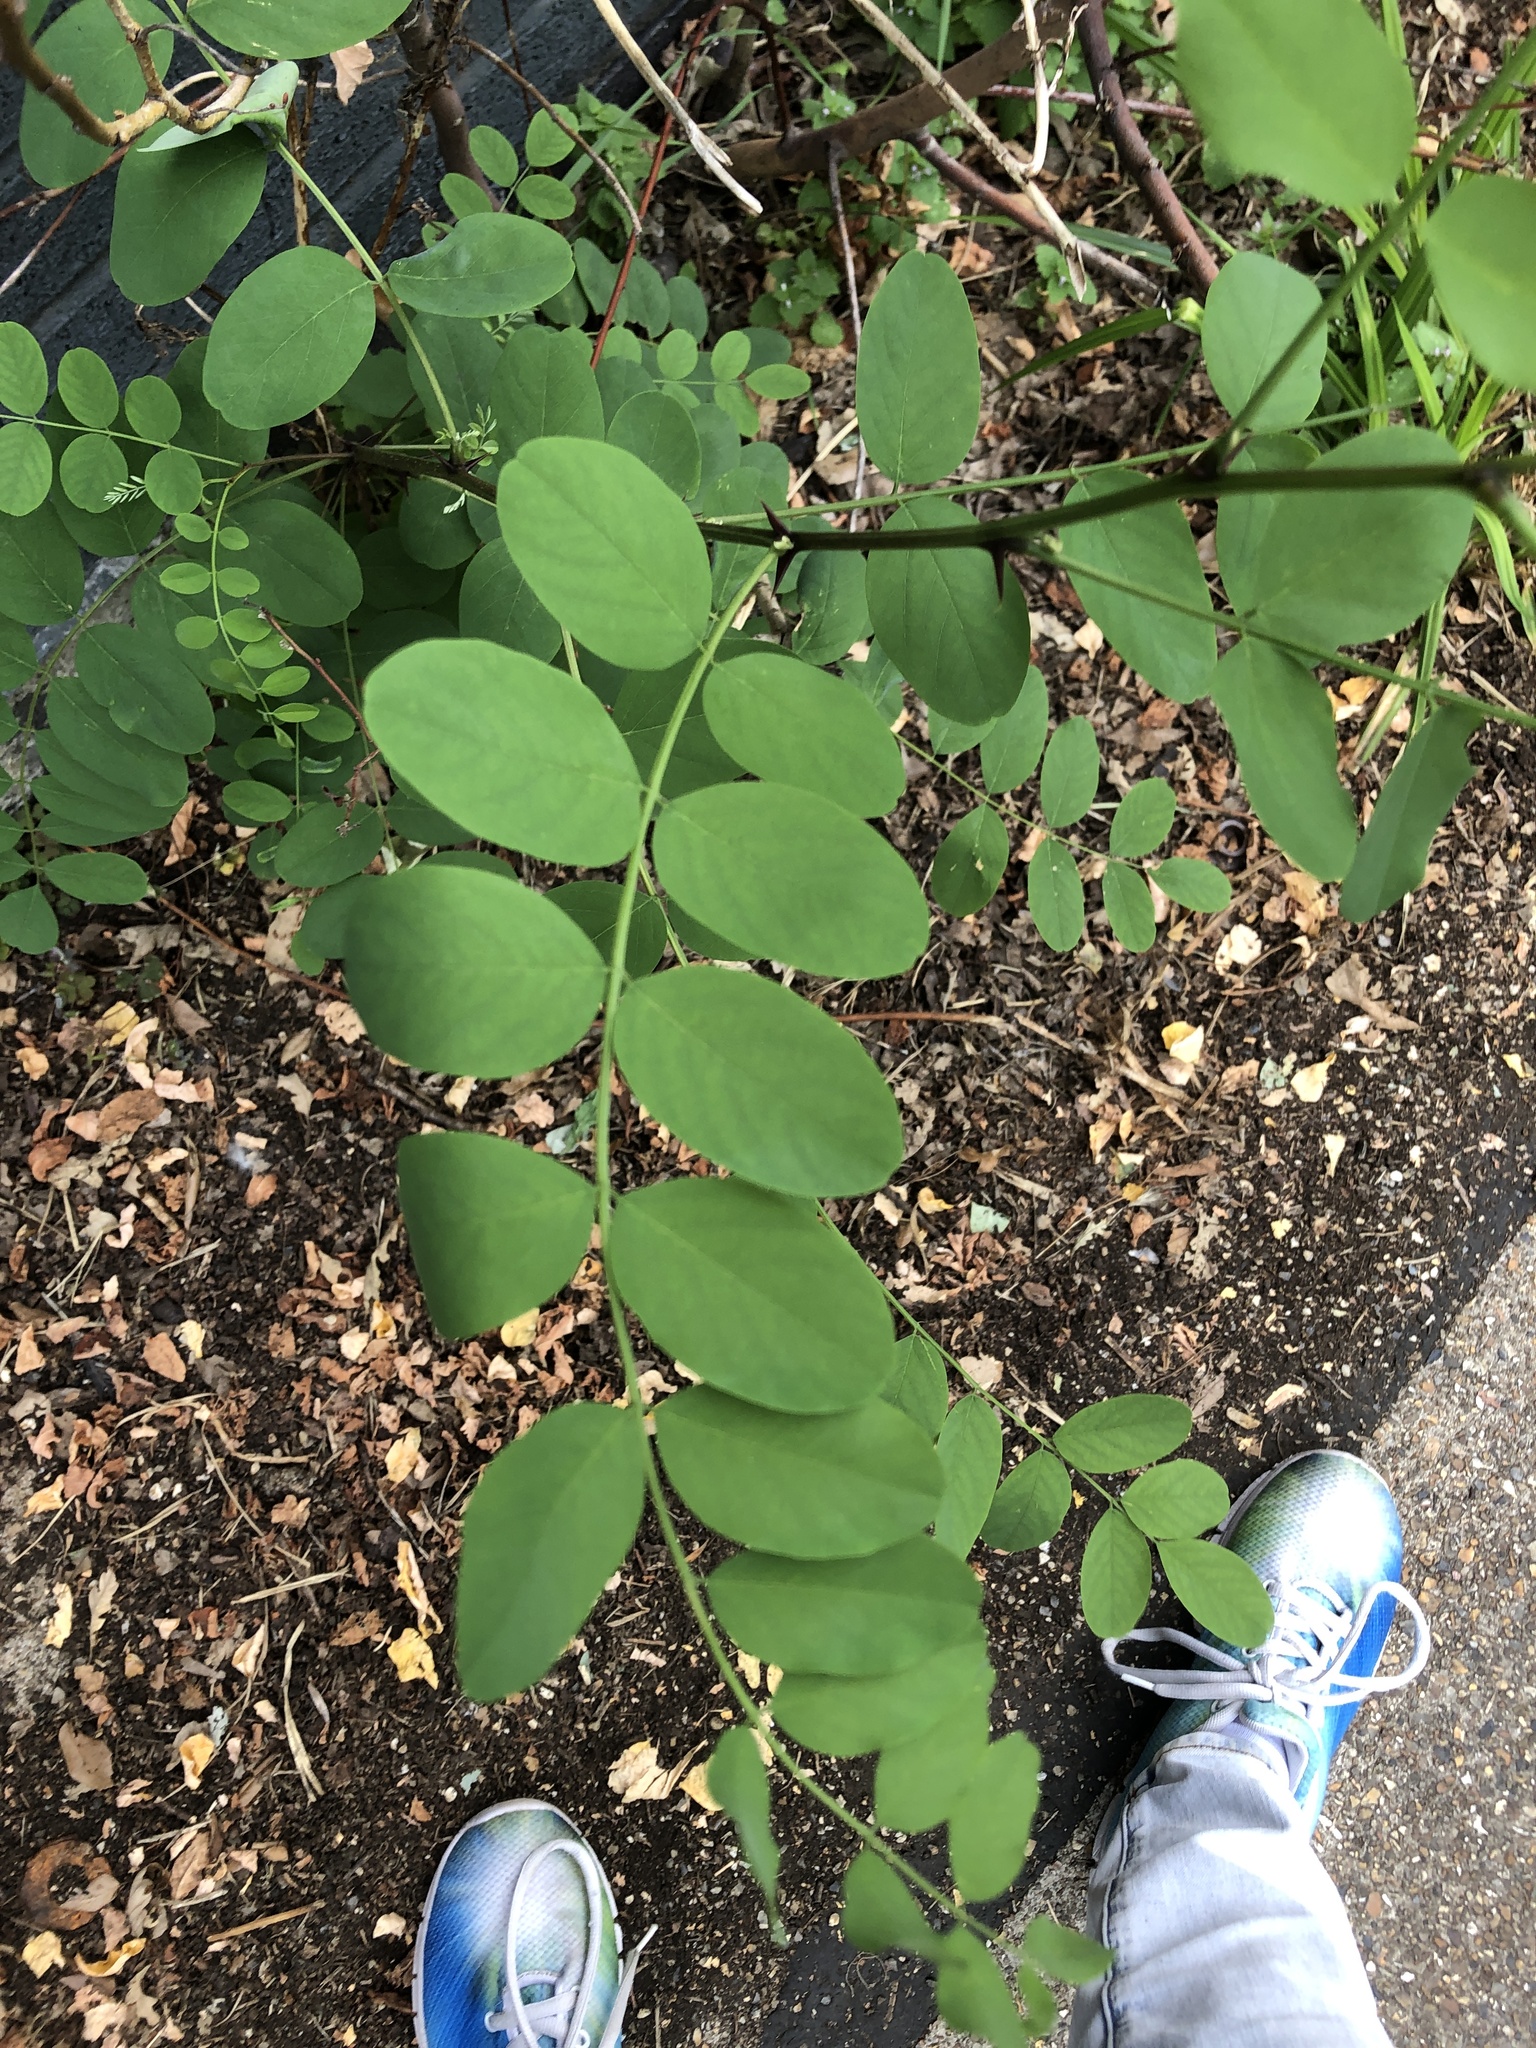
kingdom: Plantae
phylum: Tracheophyta
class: Magnoliopsida
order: Fabales
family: Fabaceae
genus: Robinia
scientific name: Robinia pseudoacacia
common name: Black locust
